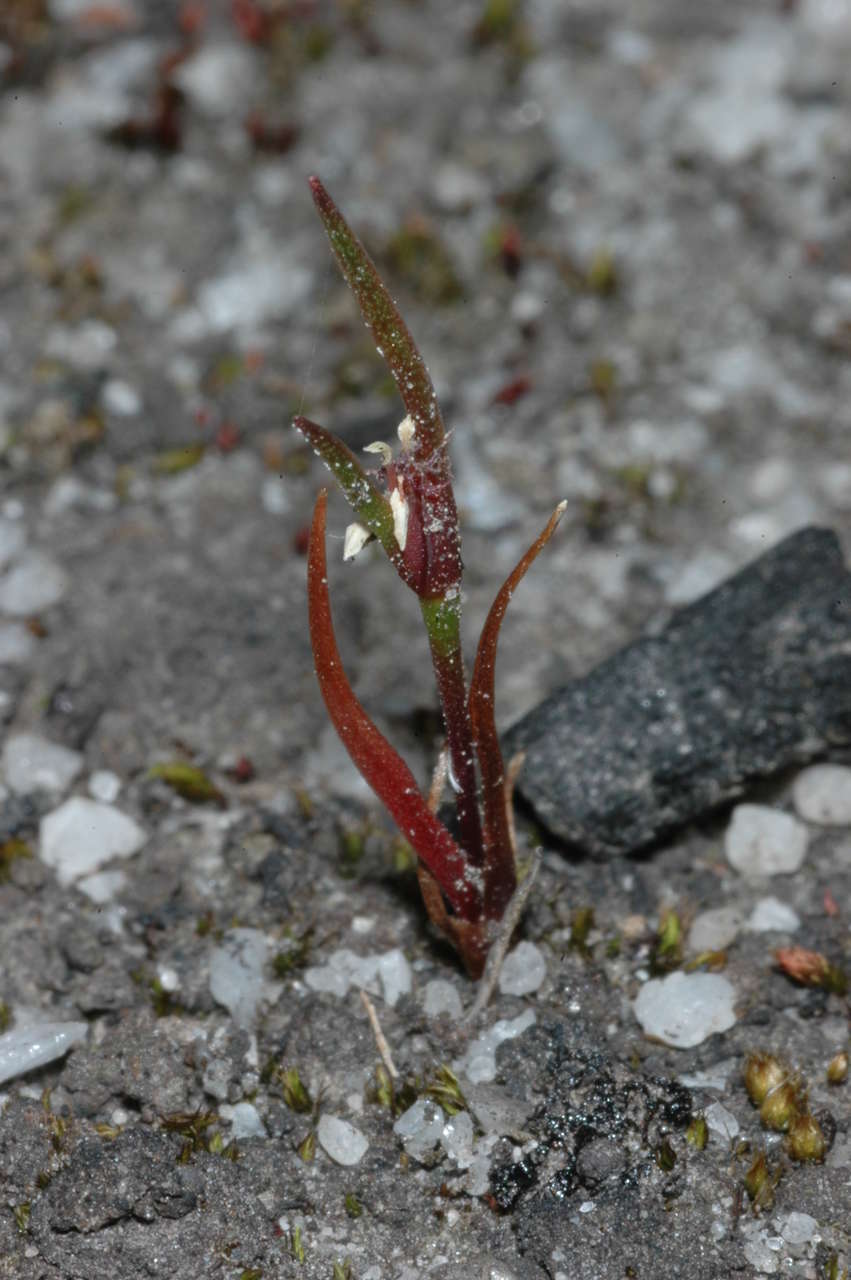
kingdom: Plantae
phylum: Tracheophyta
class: Liliopsida
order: Poales
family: Restionaceae
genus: Centrolepis
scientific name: Centrolepis aristata
